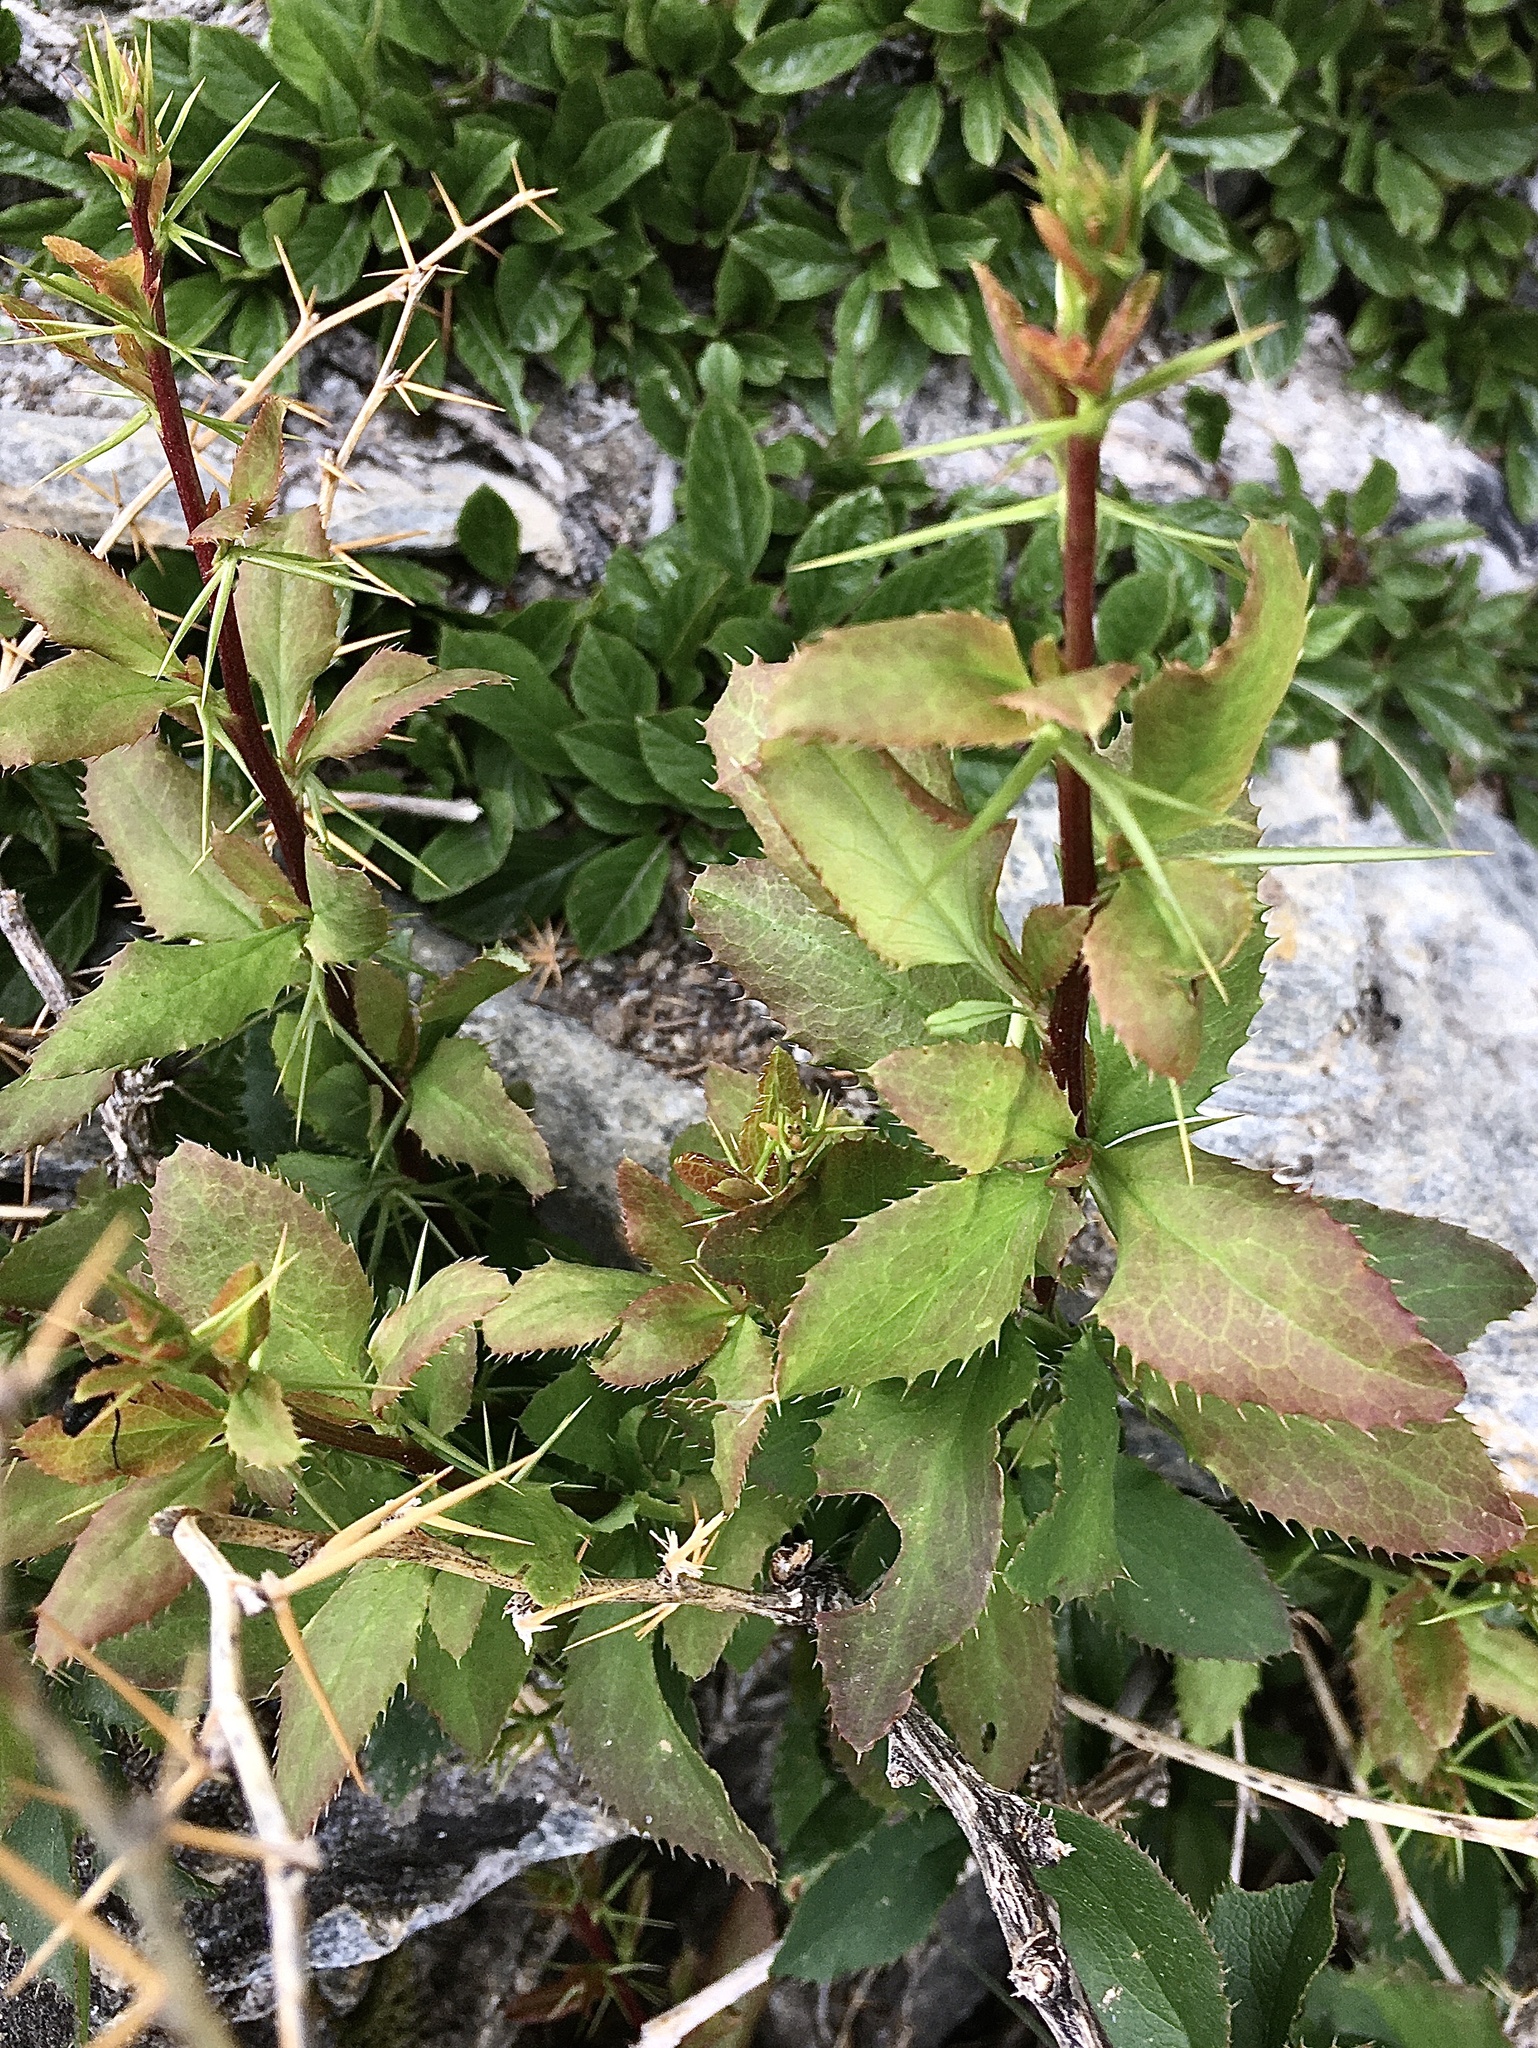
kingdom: Plantae
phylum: Tracheophyta
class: Magnoliopsida
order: Ranunculales
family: Berberidaceae
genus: Berberis
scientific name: Berberis vulgaris
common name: Barberry
